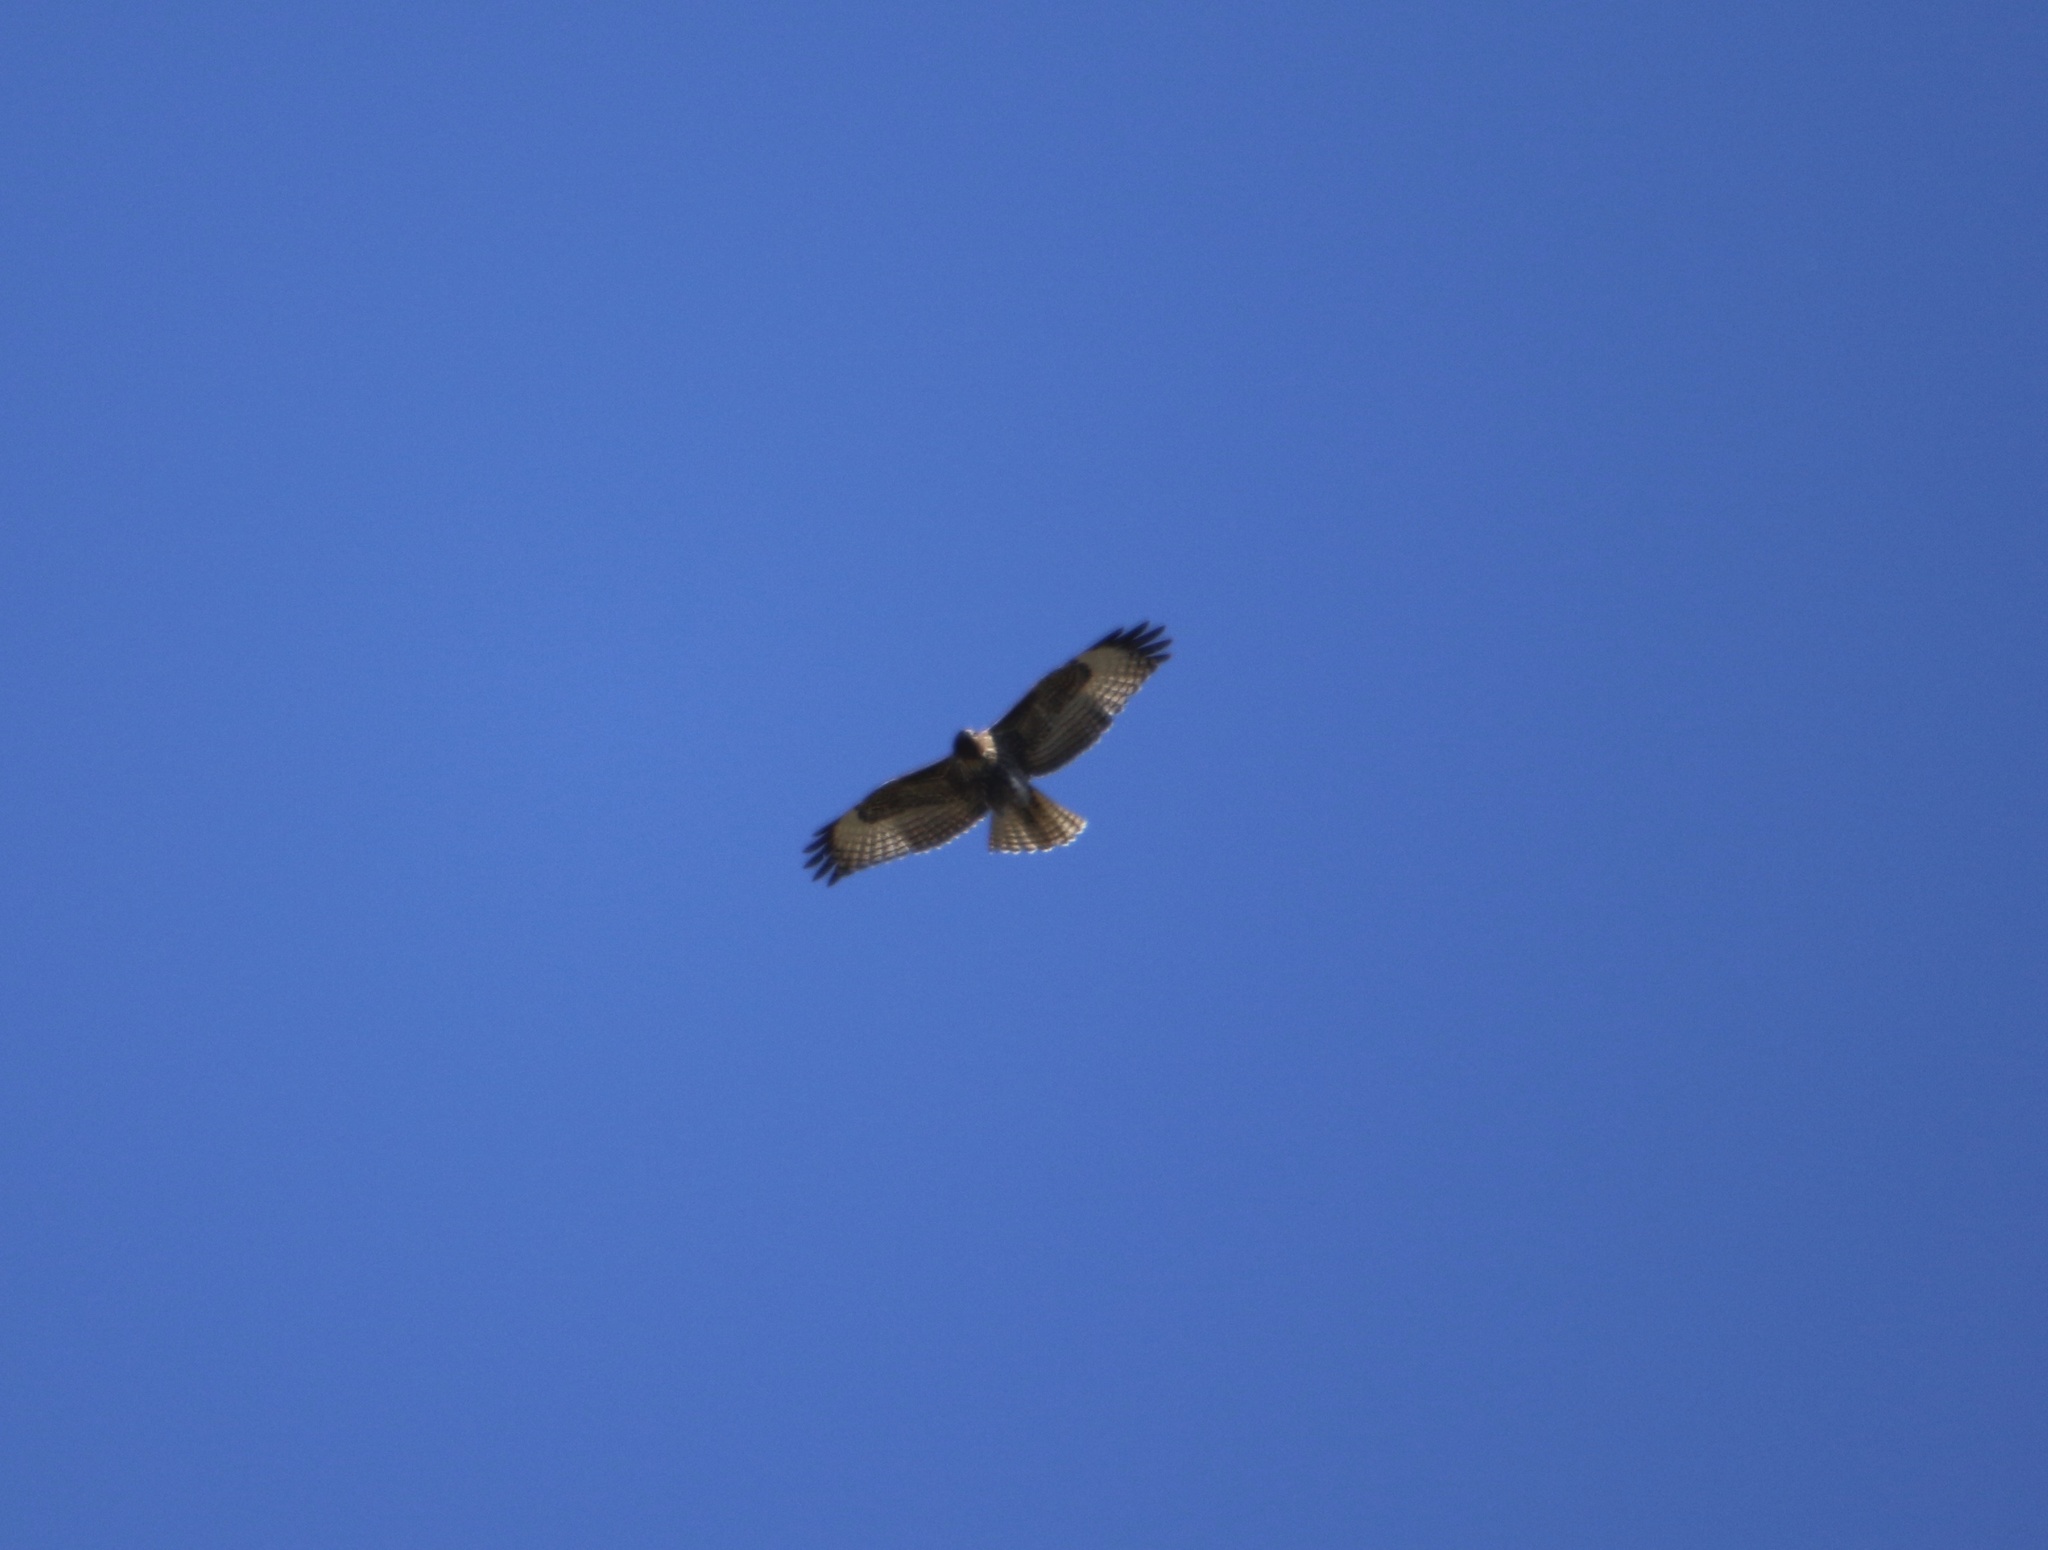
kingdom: Animalia
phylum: Chordata
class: Aves
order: Accipitriformes
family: Accipitridae
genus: Buteo
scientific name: Buteo jamaicensis
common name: Red-tailed hawk
